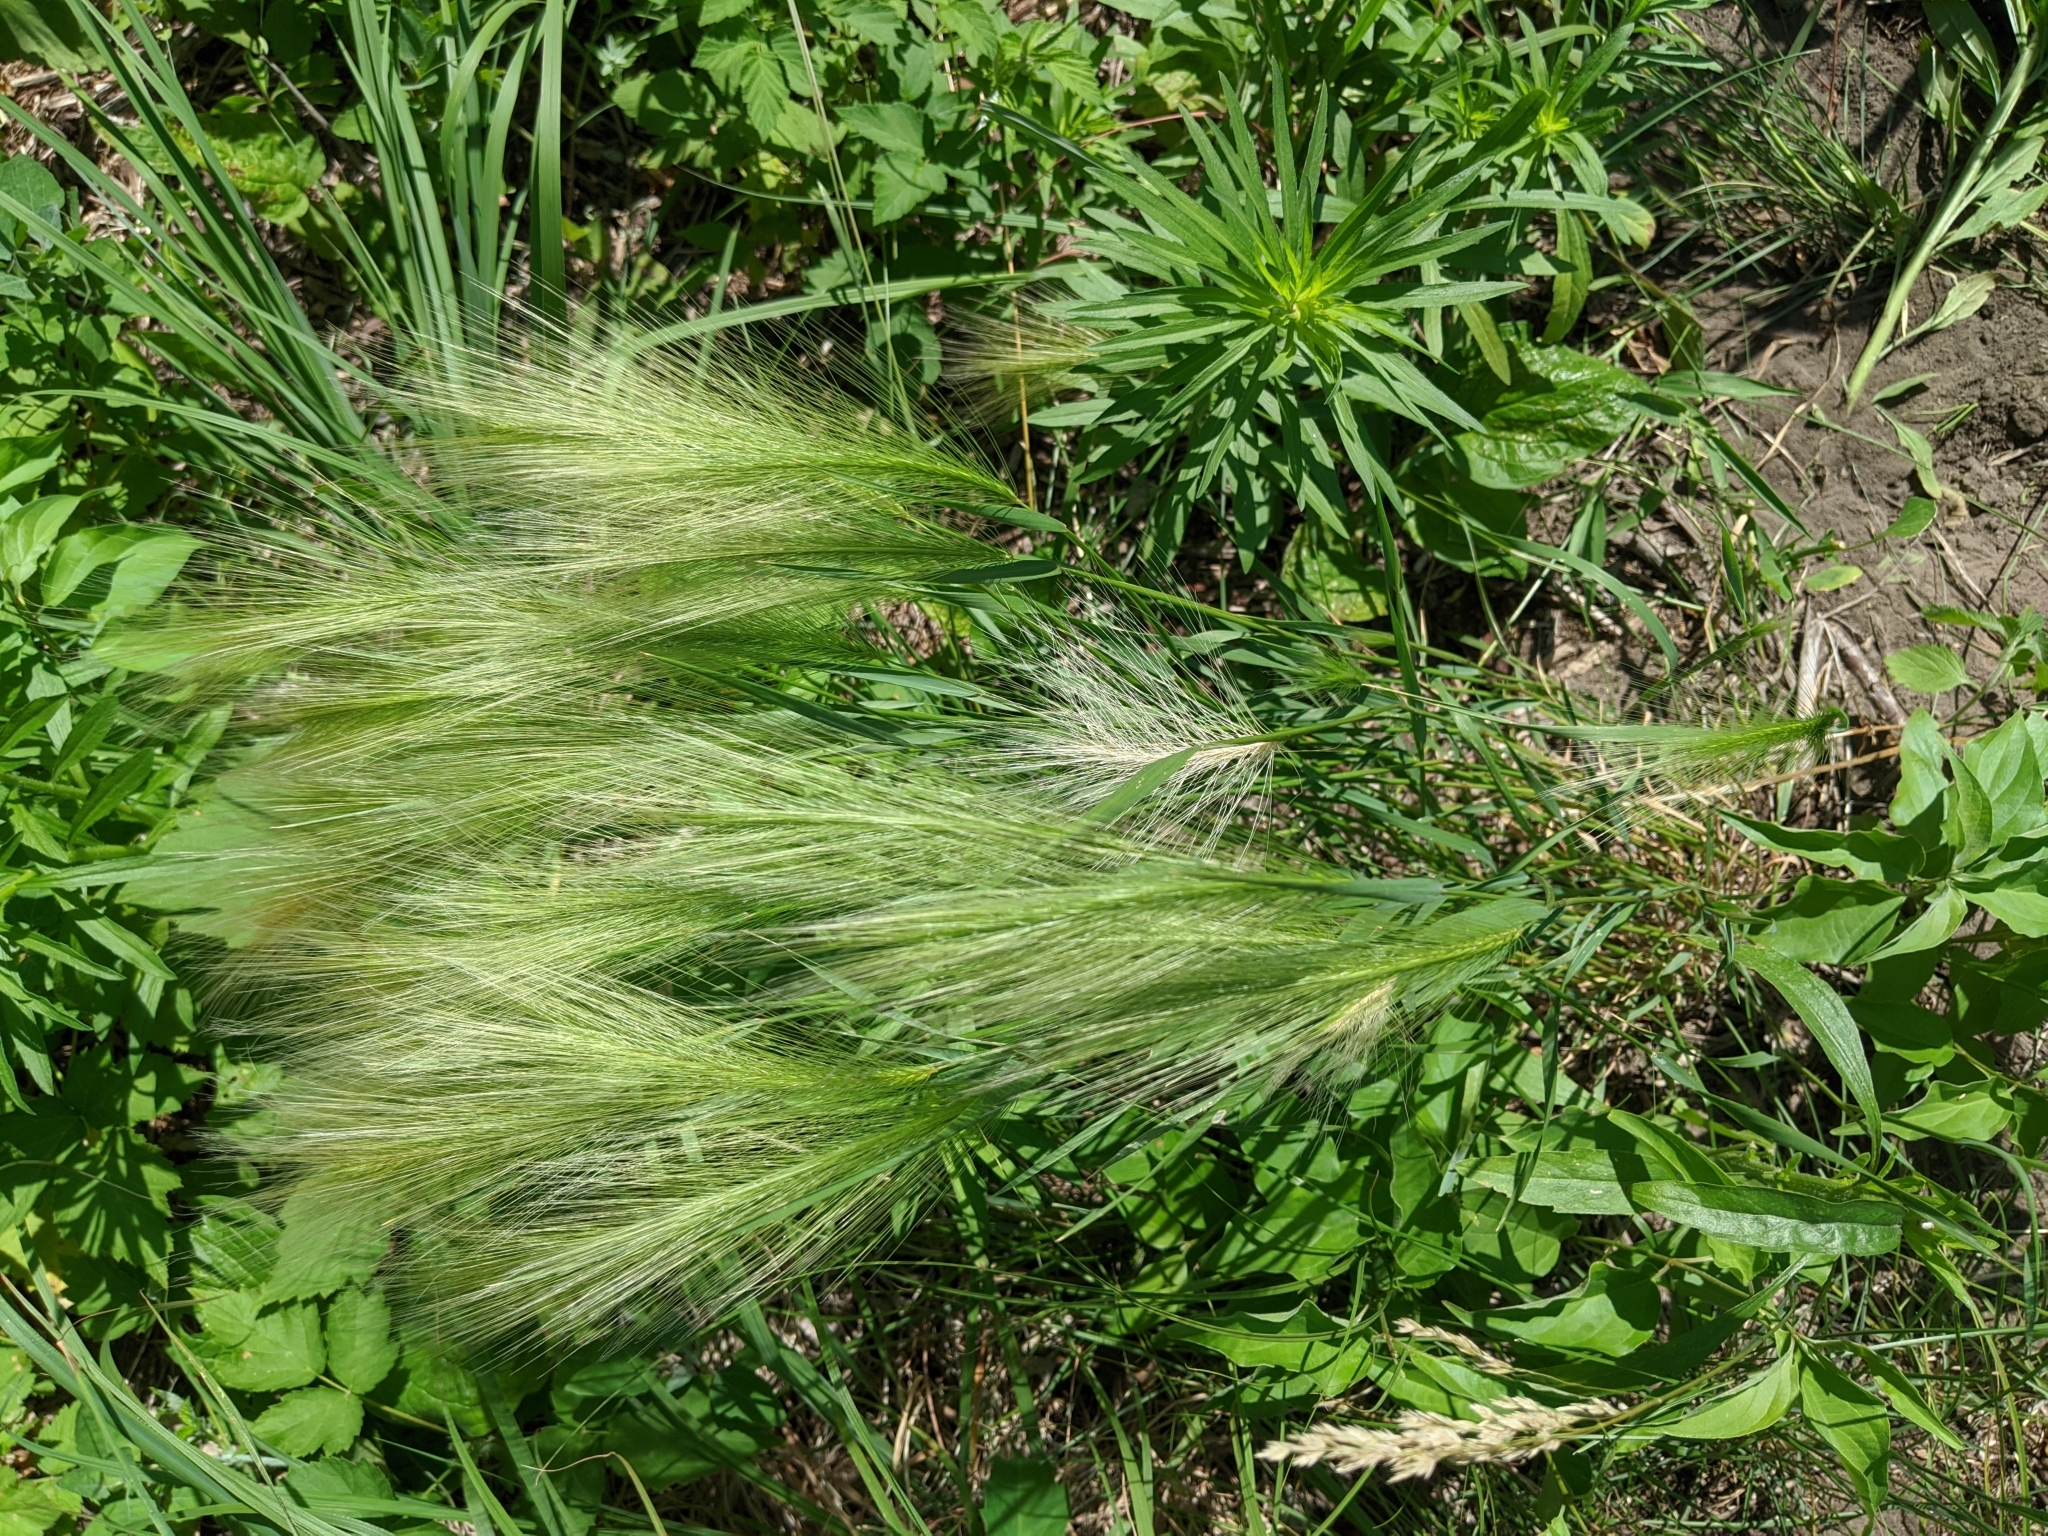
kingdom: Plantae
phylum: Tracheophyta
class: Liliopsida
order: Poales
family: Poaceae
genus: Hordeum
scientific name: Hordeum jubatum
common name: Foxtail barley
